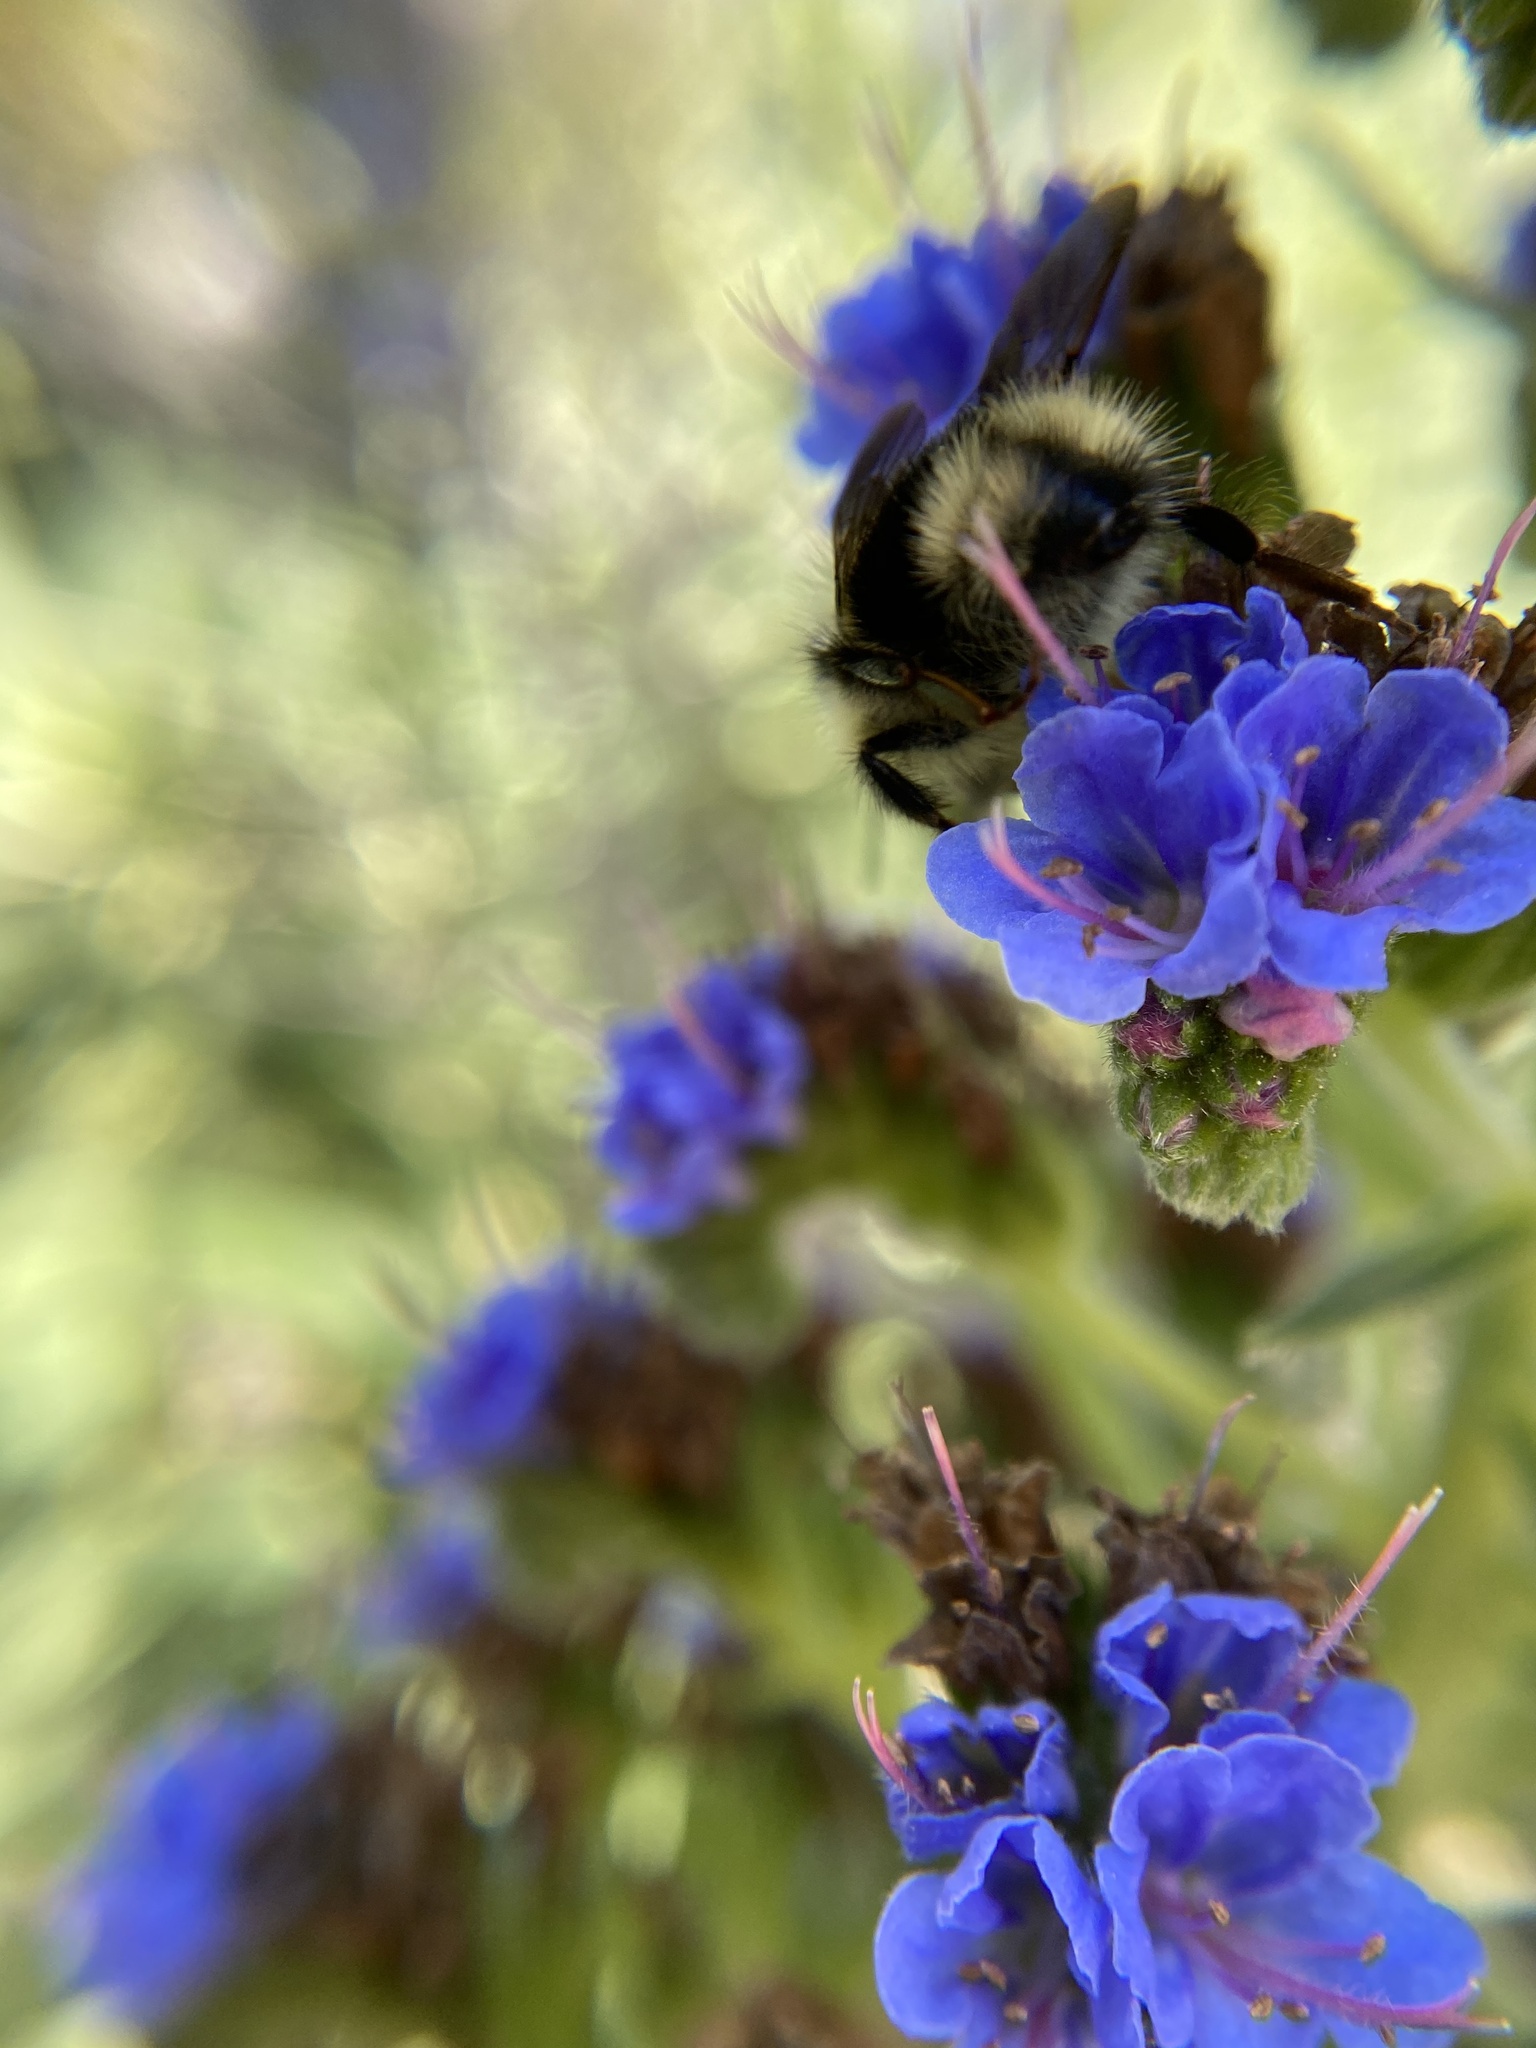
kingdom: Animalia
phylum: Arthropoda
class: Insecta
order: Hymenoptera
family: Apidae
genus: Bombus
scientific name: Bombus melanopygus
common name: Black tail bumble bee
